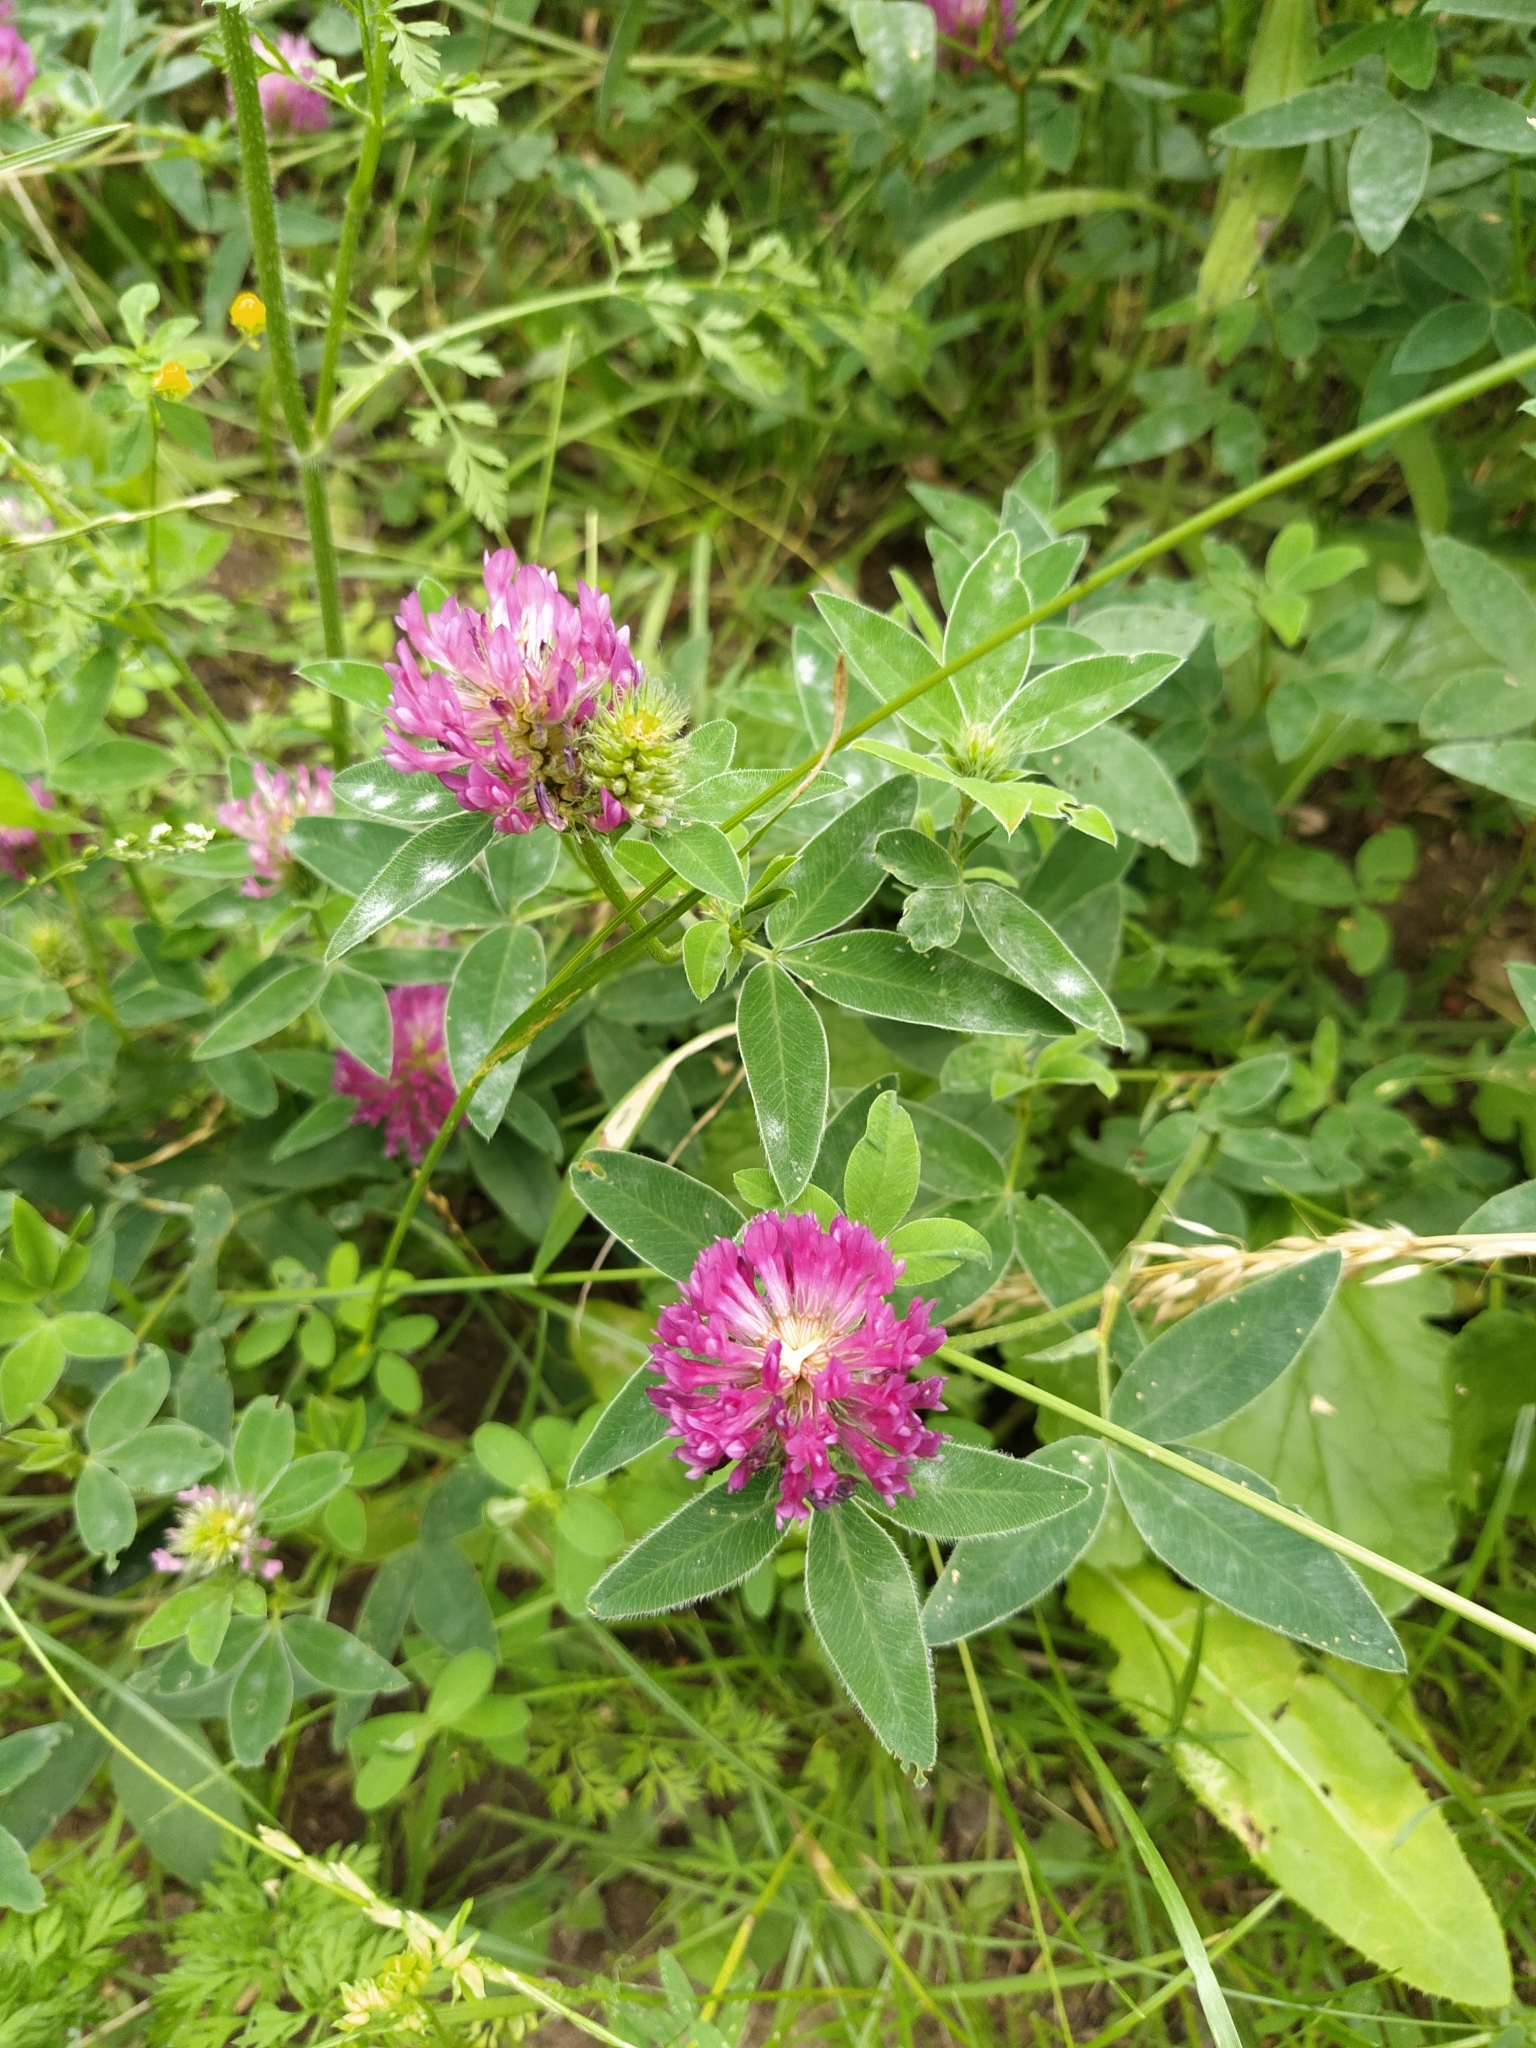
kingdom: Plantae
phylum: Tracheophyta
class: Magnoliopsida
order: Fabales
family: Fabaceae
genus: Trifolium
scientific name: Trifolium medium
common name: Zigzag clover
